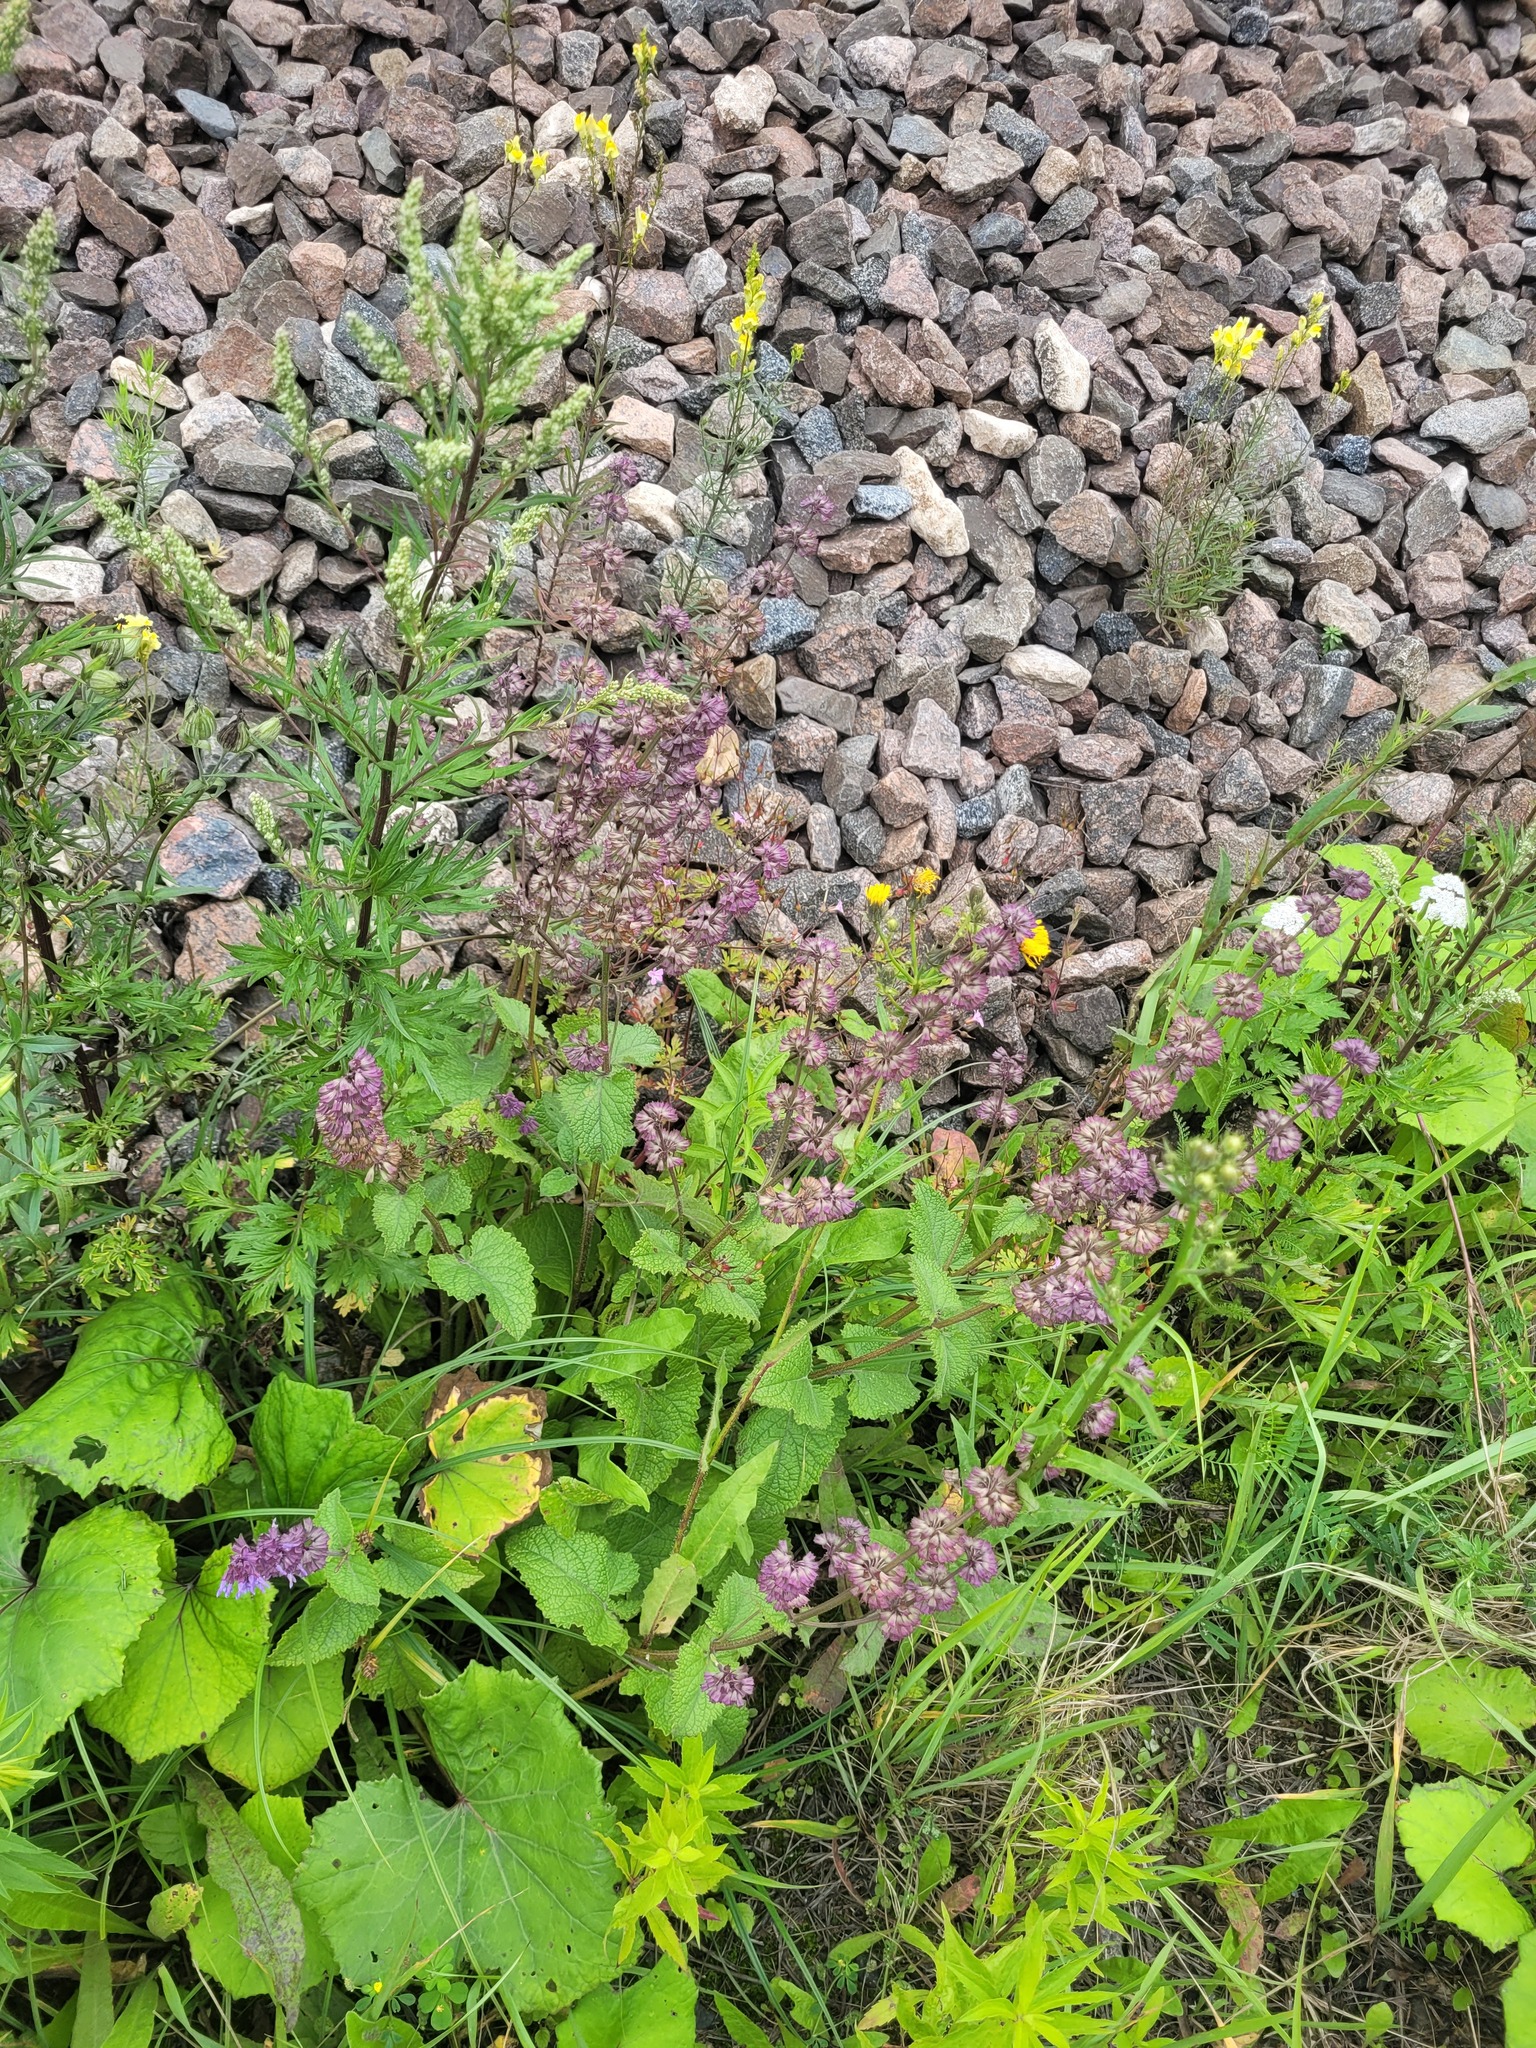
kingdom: Plantae
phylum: Tracheophyta
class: Magnoliopsida
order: Lamiales
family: Lamiaceae
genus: Salvia
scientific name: Salvia verticillata
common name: Whorled clary
